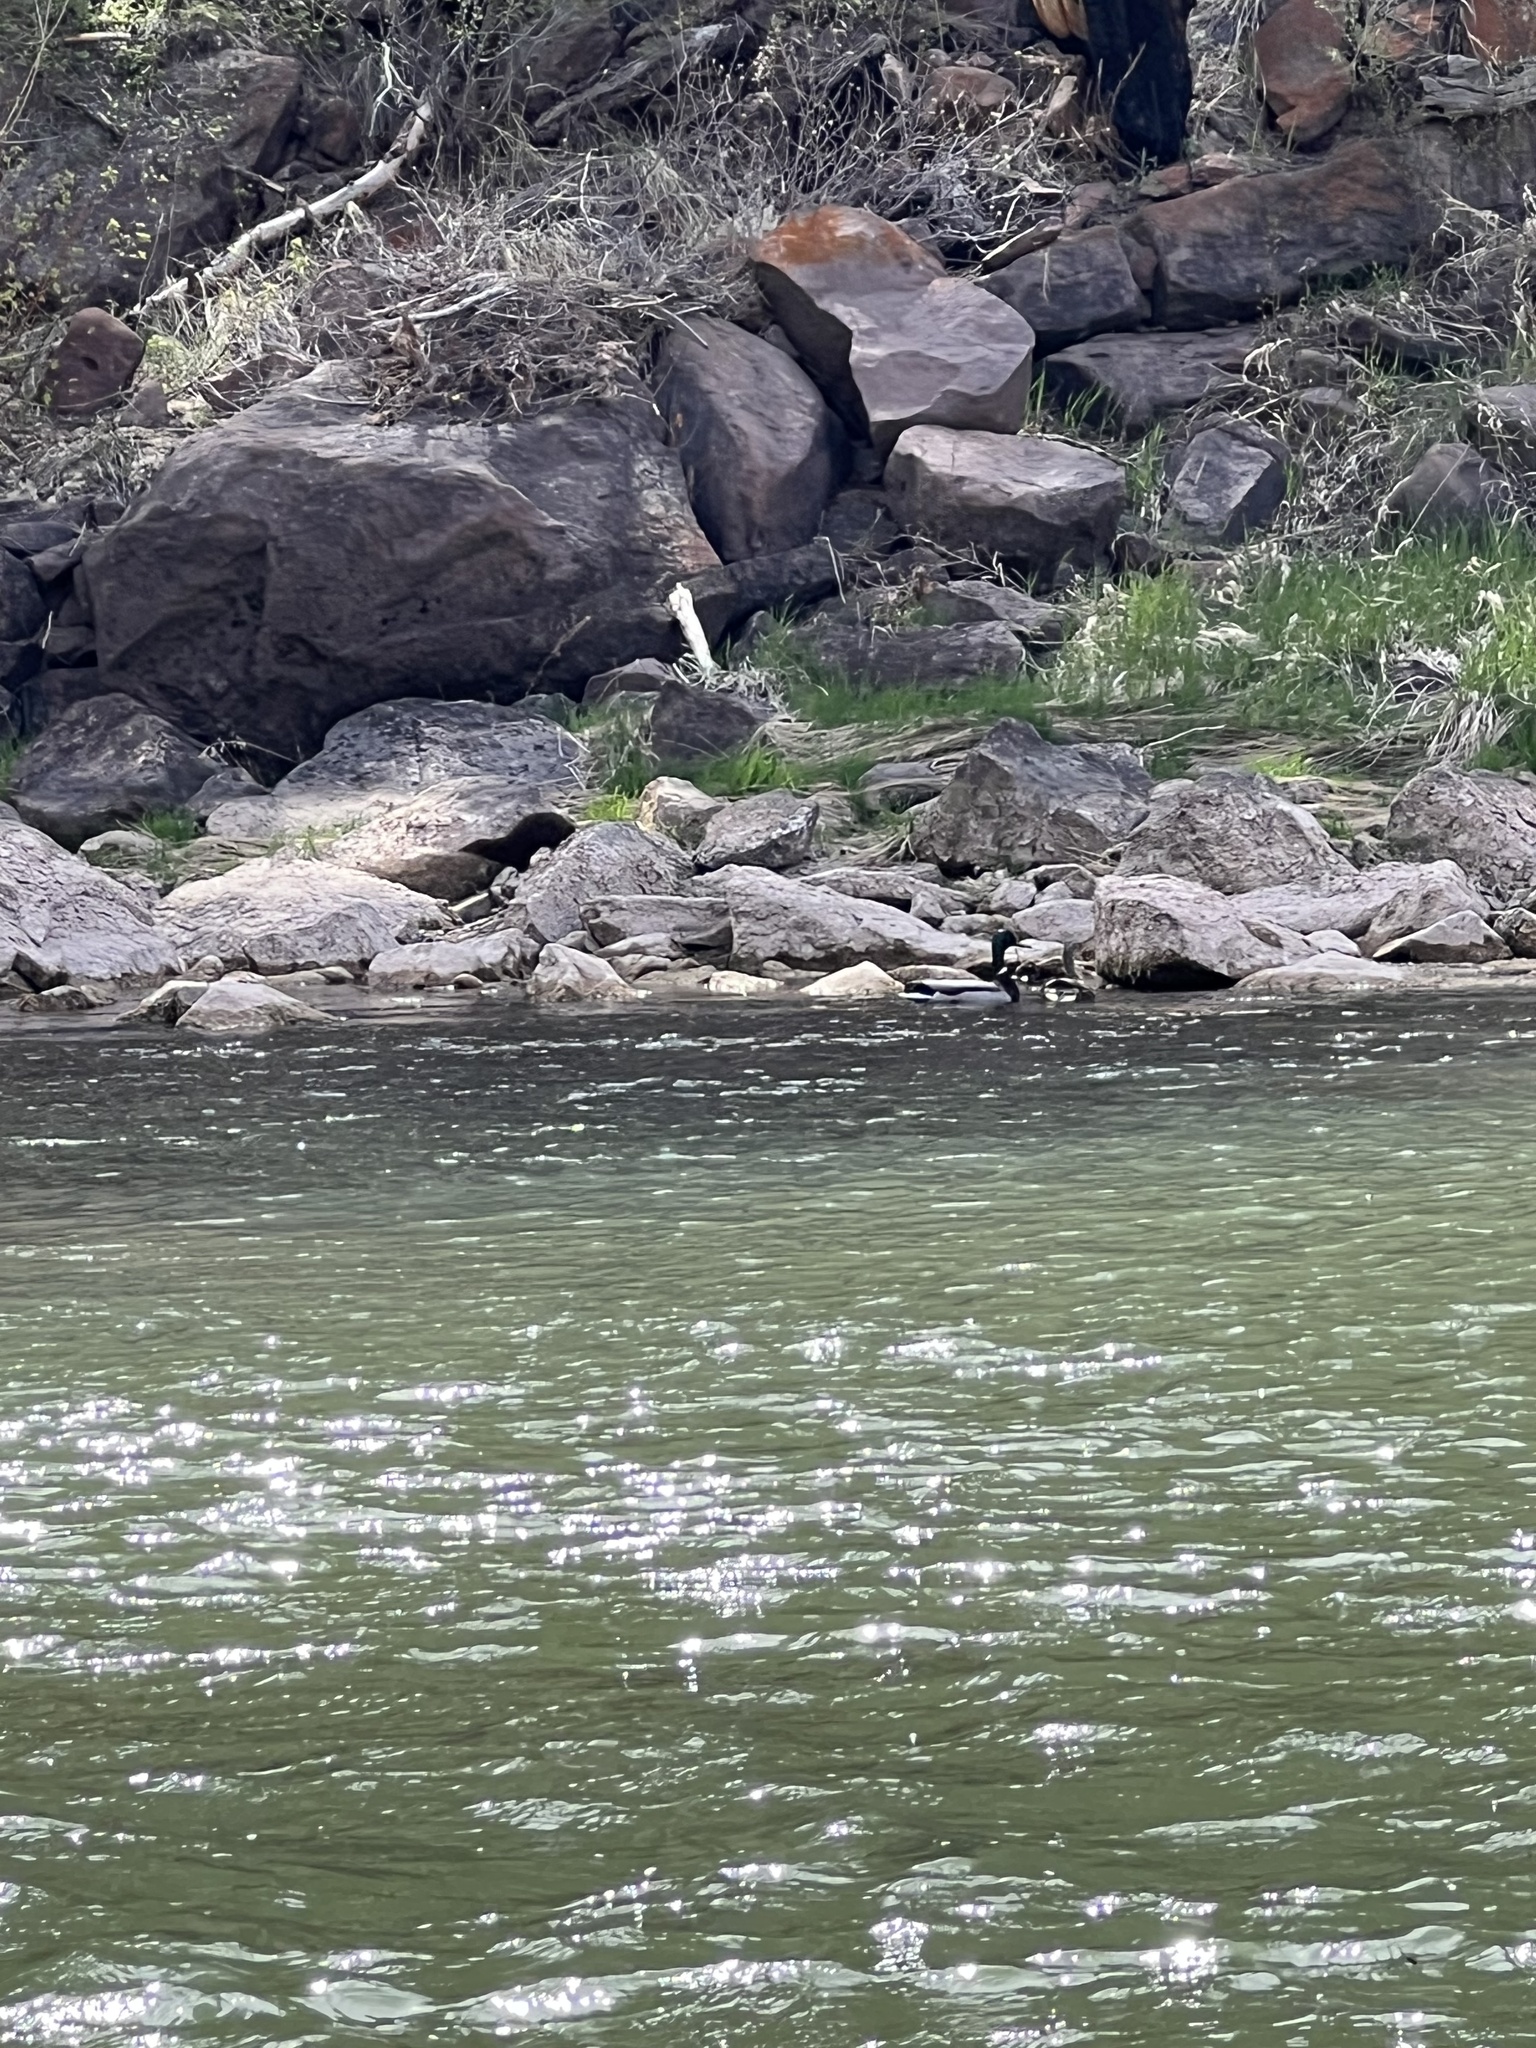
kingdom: Animalia
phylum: Chordata
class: Mammalia
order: Carnivora
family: Mustelidae
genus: Mustela
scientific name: Mustela
